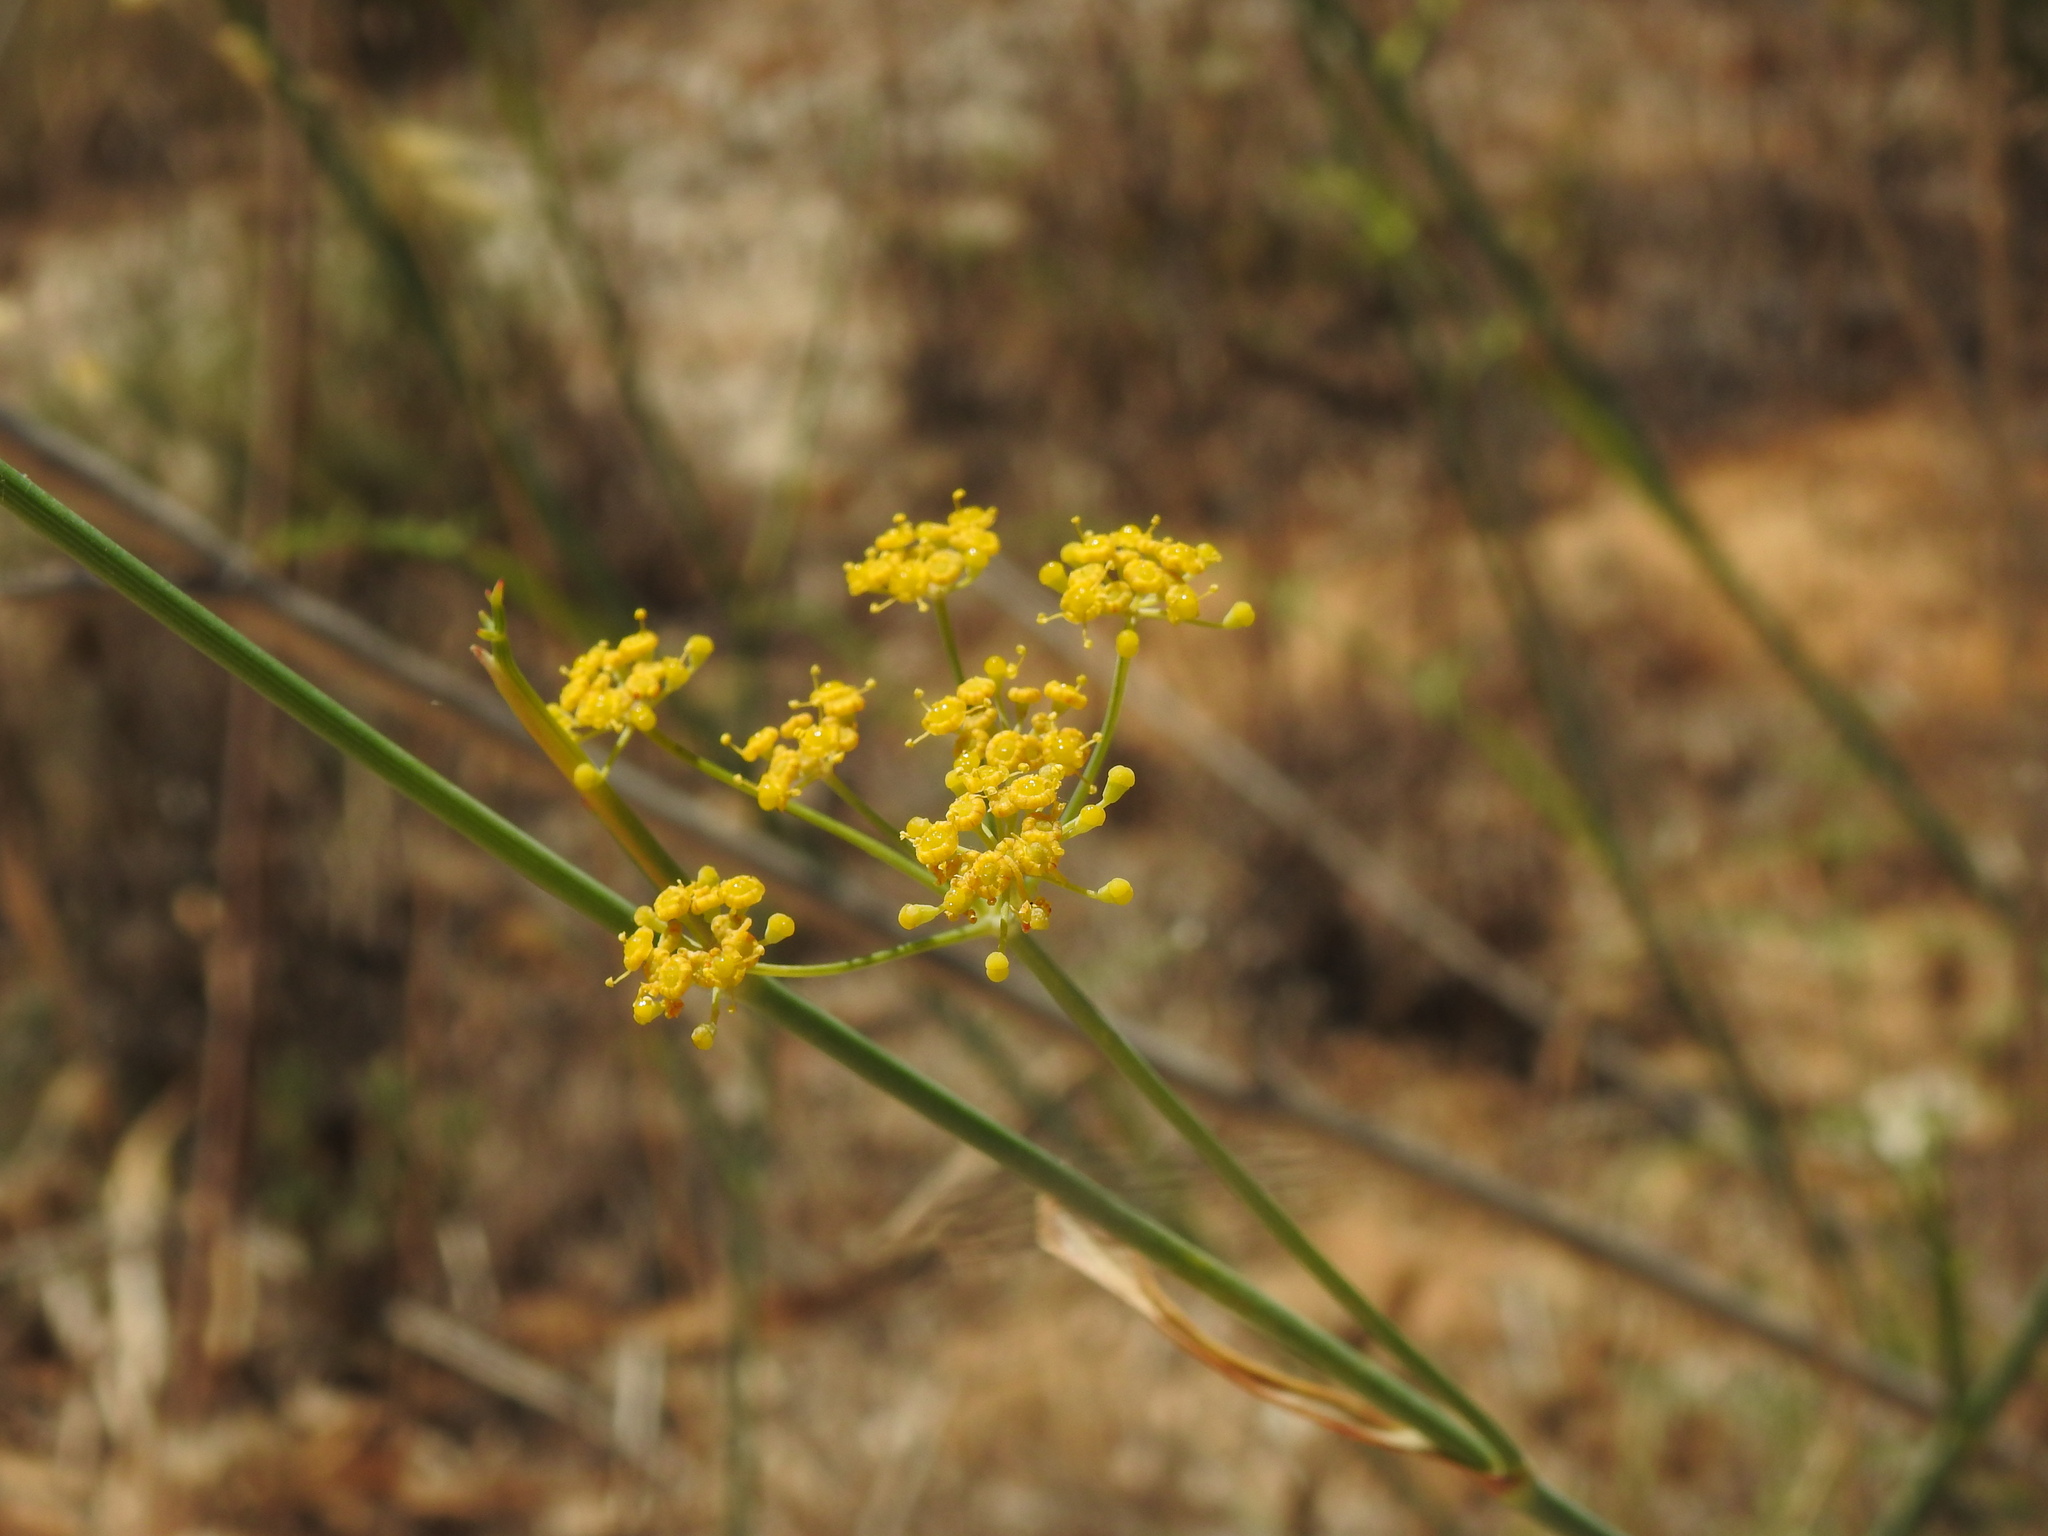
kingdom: Plantae
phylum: Tracheophyta
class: Magnoliopsida
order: Apiales
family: Apiaceae
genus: Foeniculum
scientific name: Foeniculum vulgare
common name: Fennel
